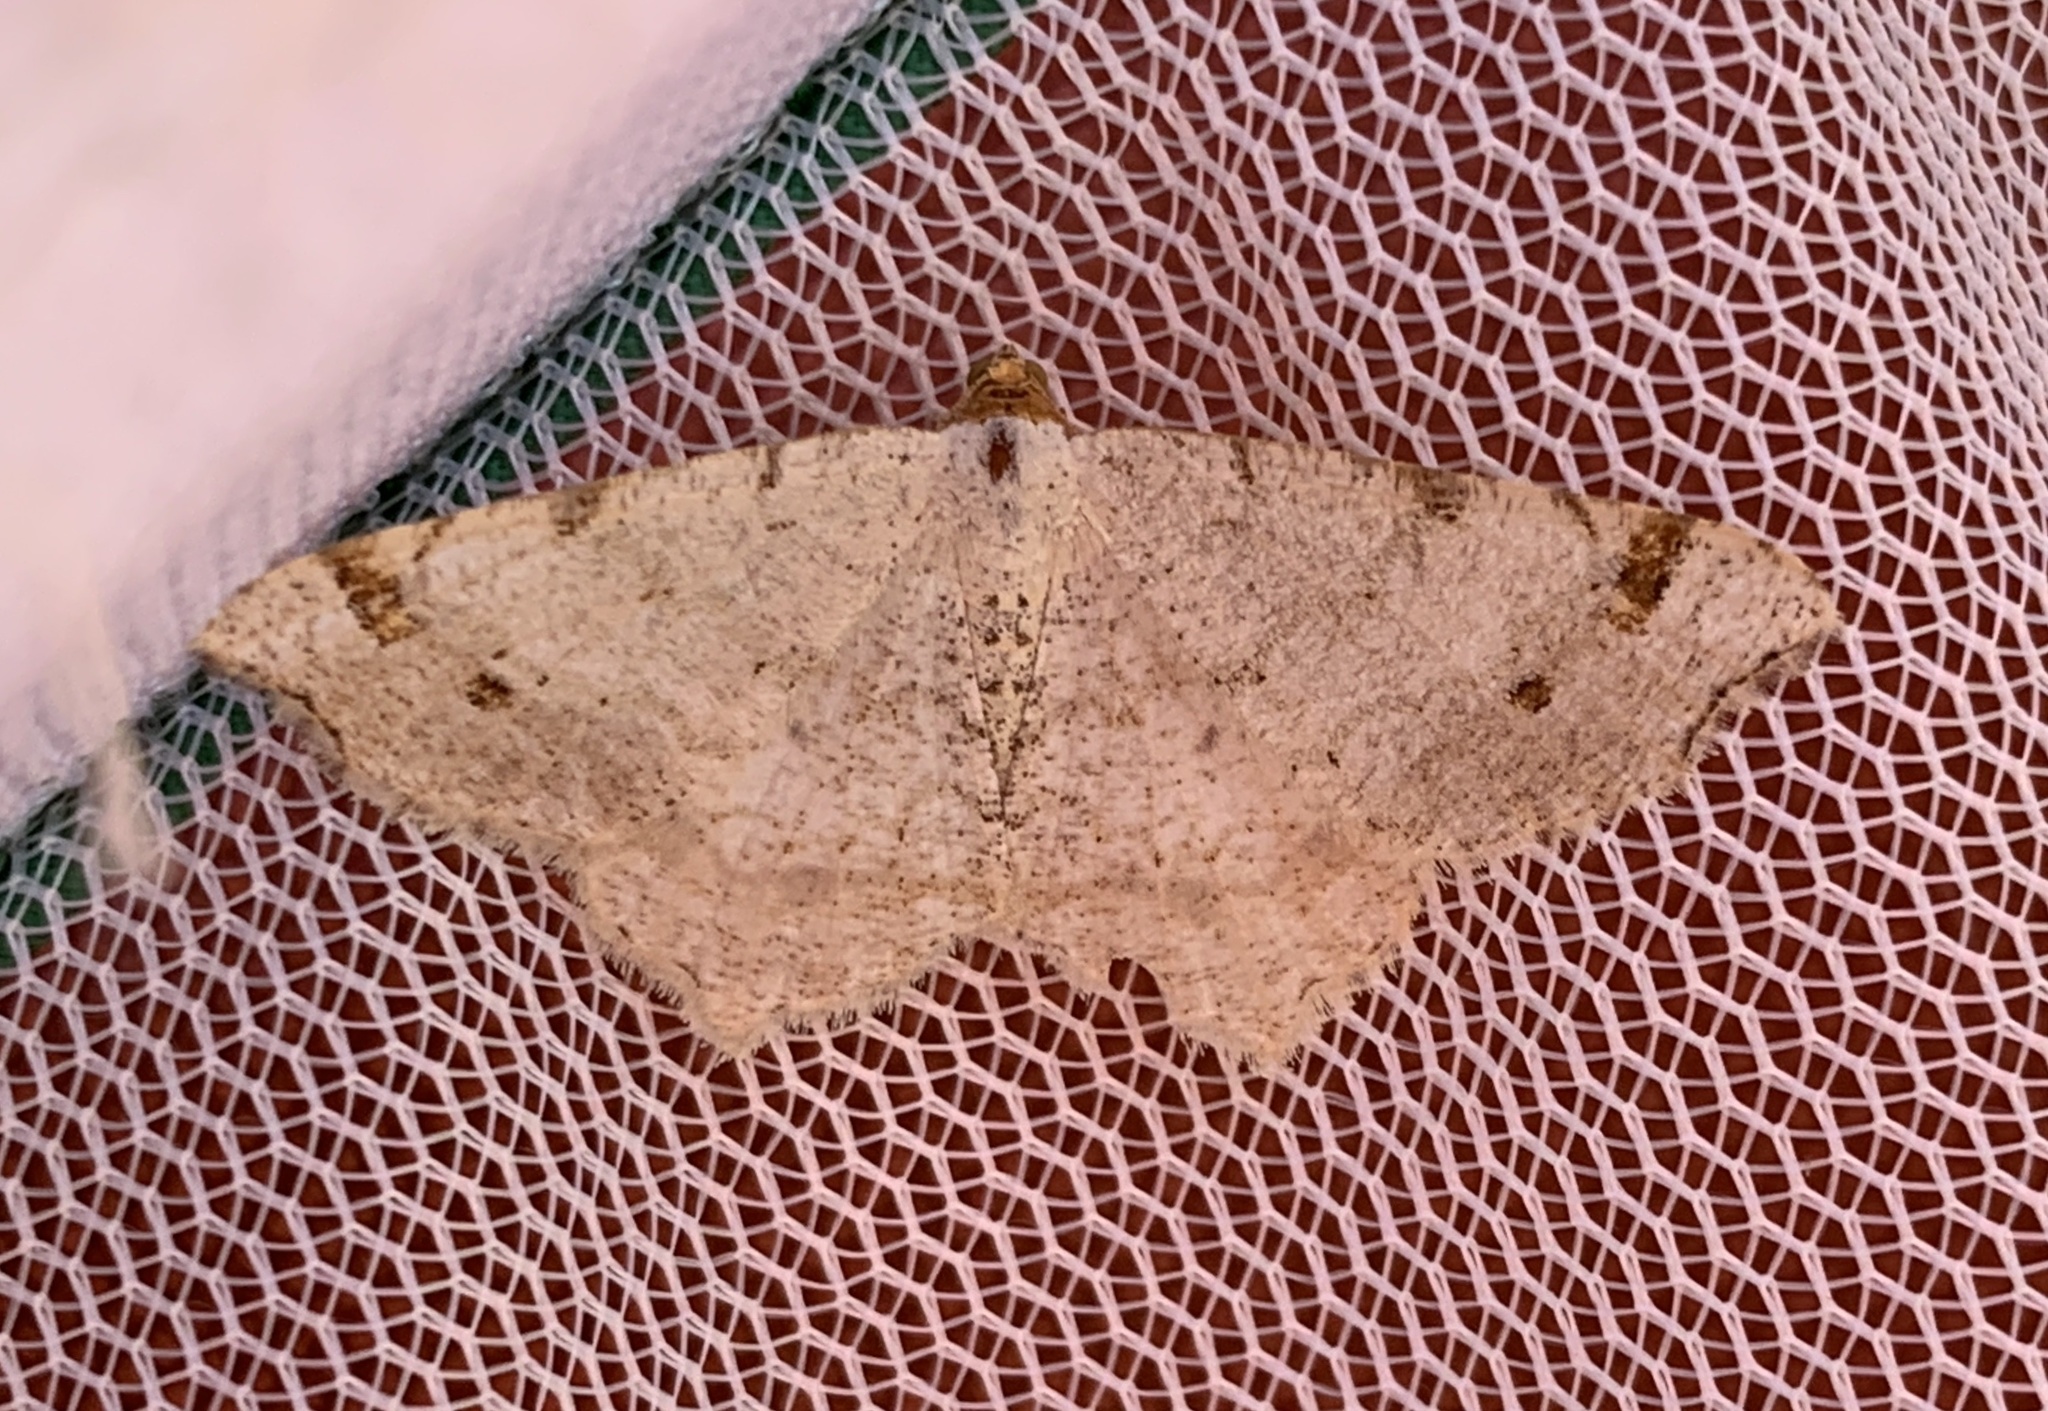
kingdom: Animalia
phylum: Arthropoda
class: Insecta
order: Lepidoptera
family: Geometridae
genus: Macaria
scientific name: Macaria bisignata
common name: Red-headed inchworm
